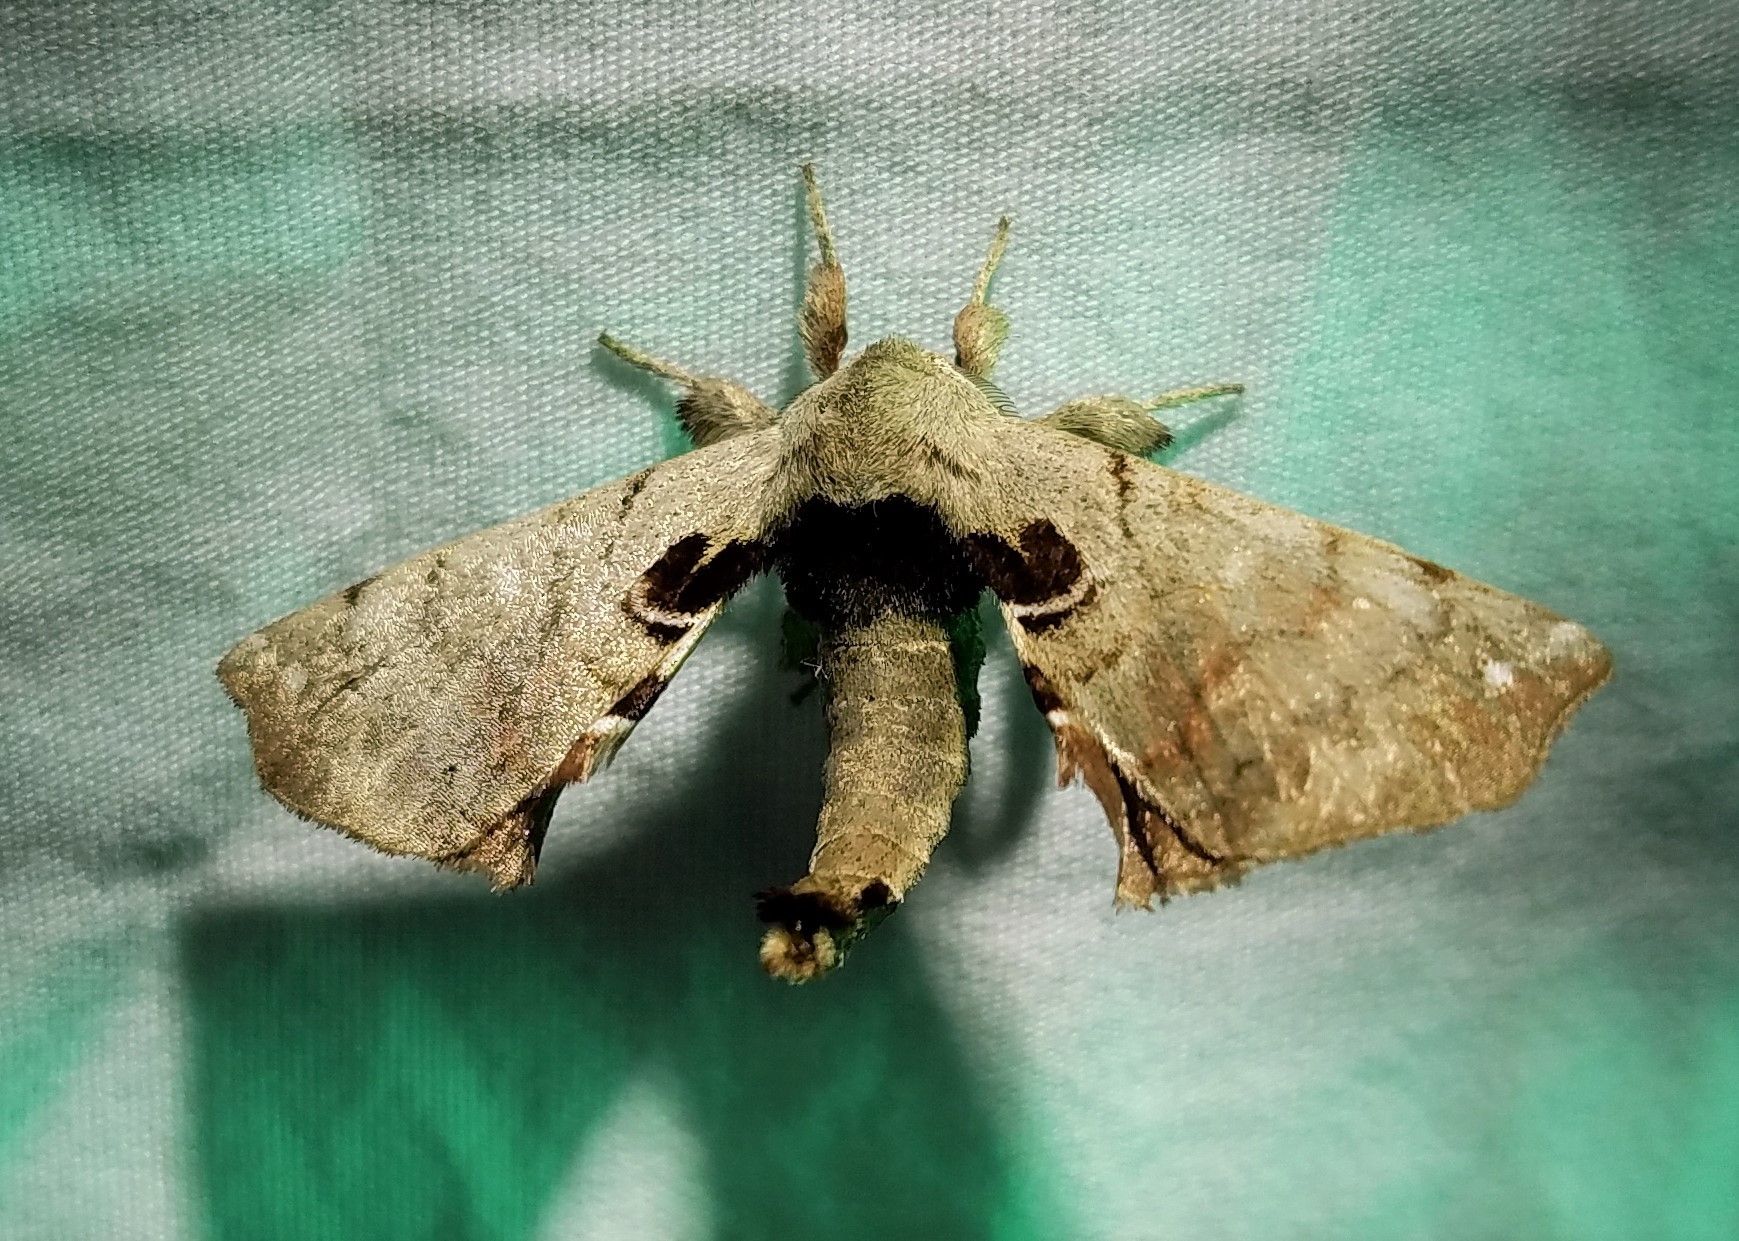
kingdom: Animalia
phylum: Arthropoda
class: Insecta
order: Lepidoptera
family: Apatelodidae
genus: Hygrochroa
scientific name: Hygrochroa Apatelodes torrefacta
